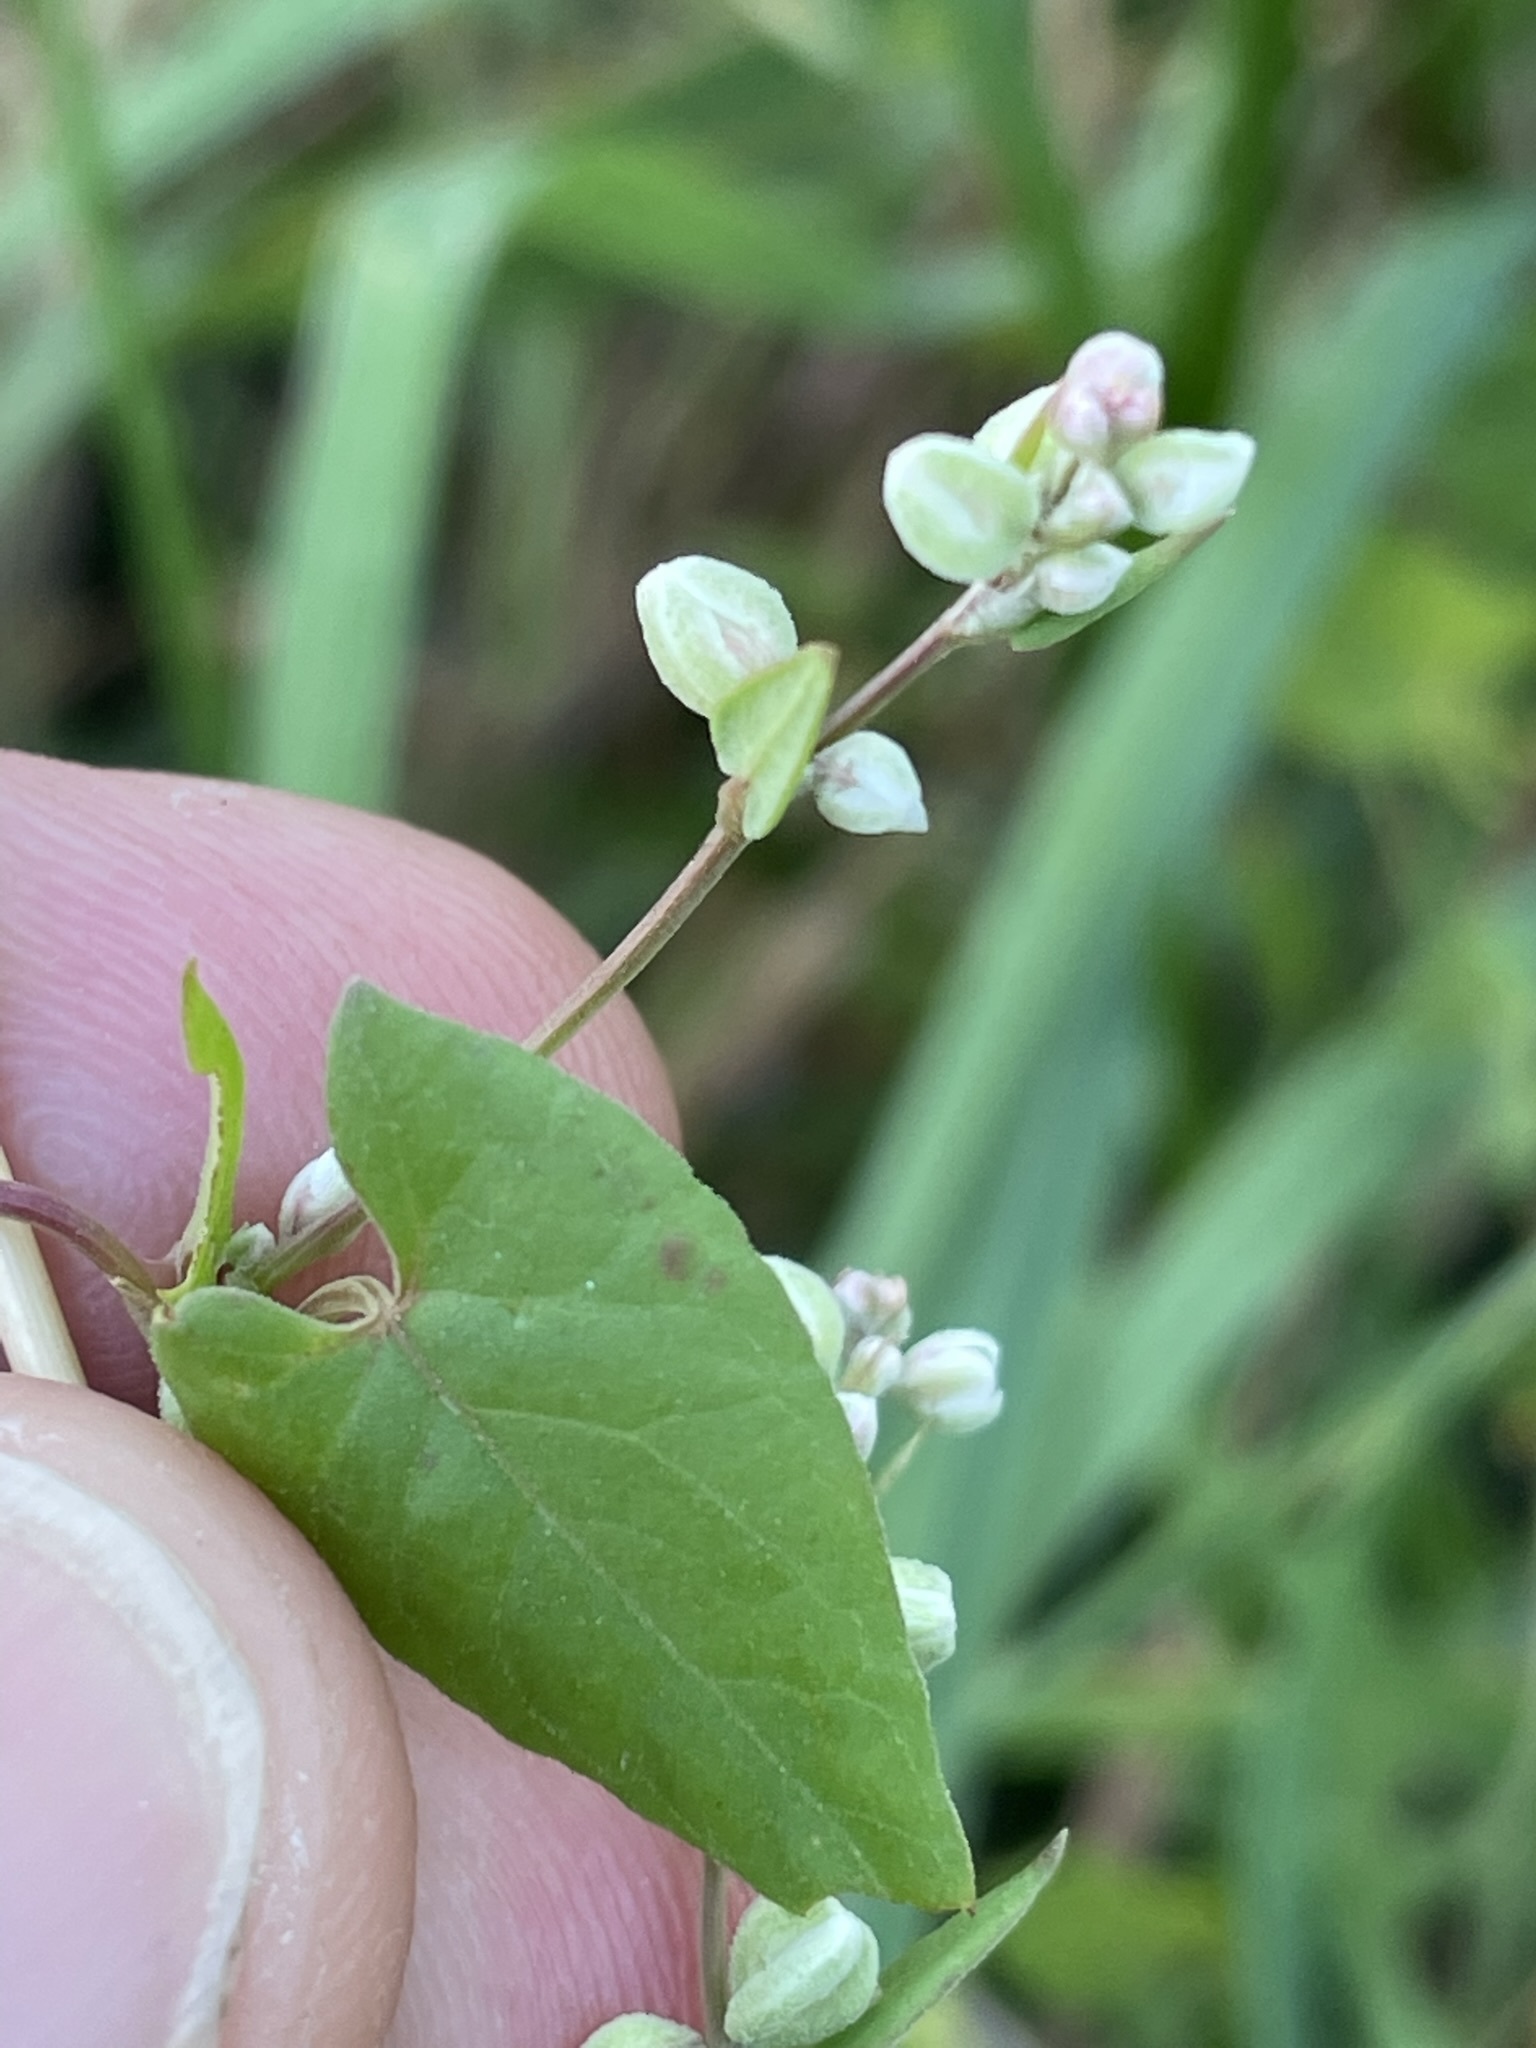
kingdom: Plantae
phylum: Tracheophyta
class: Magnoliopsida
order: Caryophyllales
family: Polygonaceae
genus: Fallopia
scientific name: Fallopia convolvulus
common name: Black bindweed
